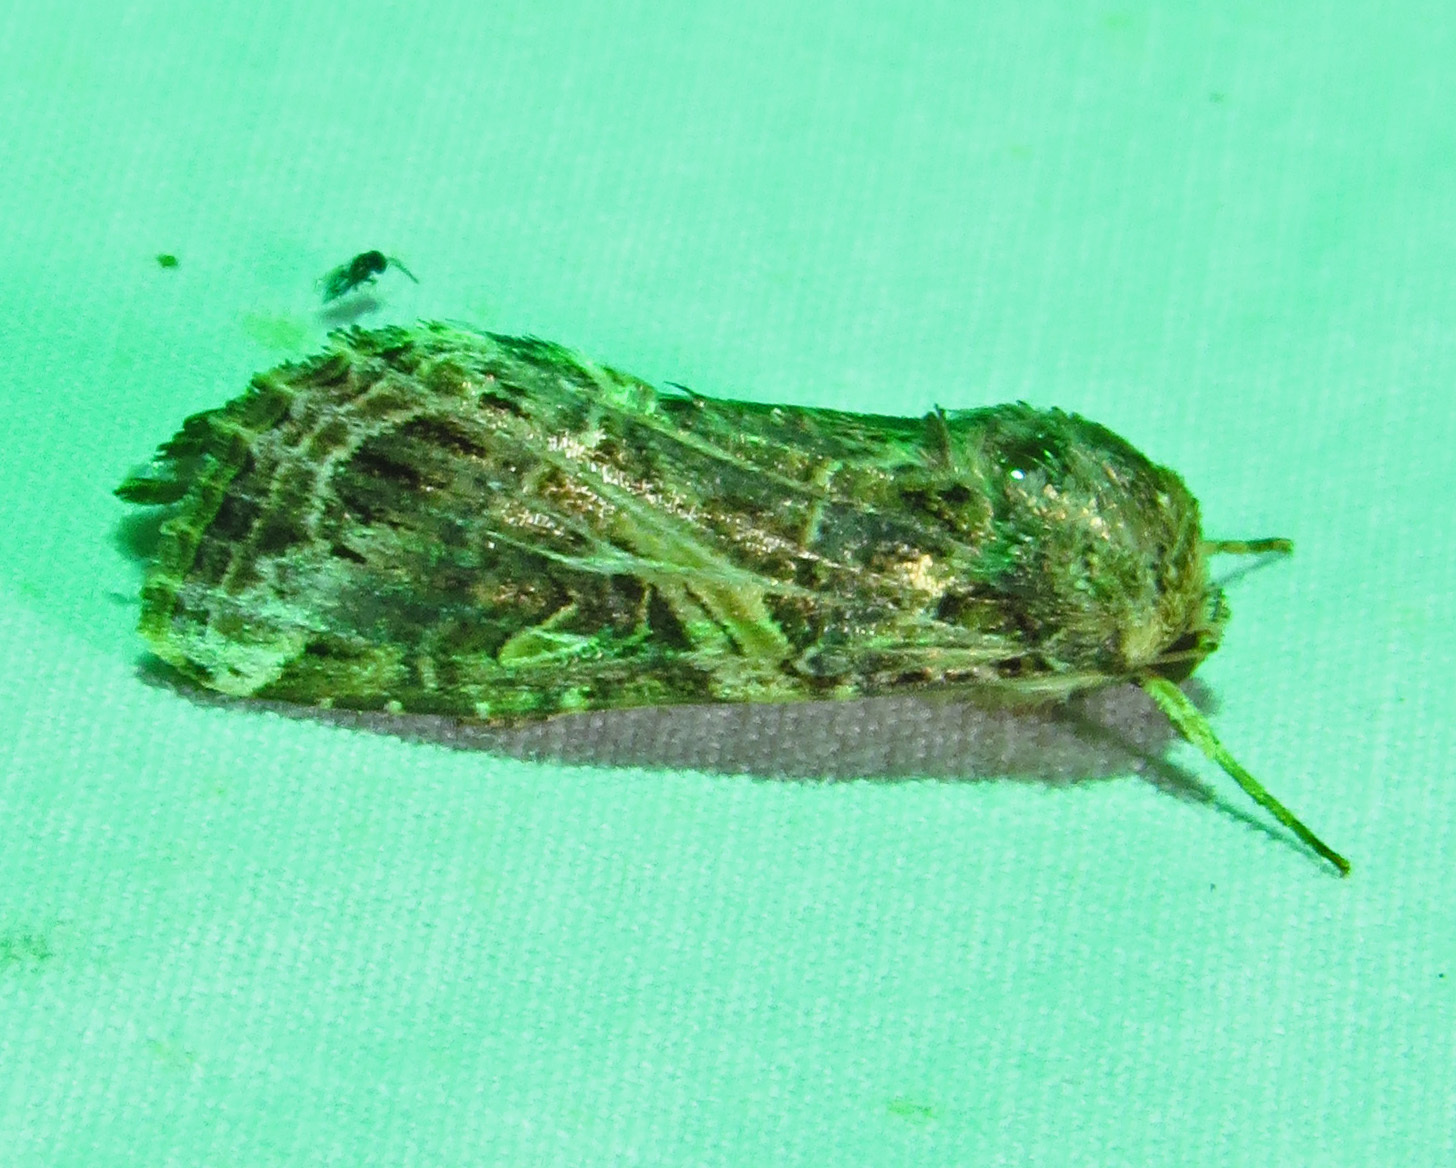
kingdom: Animalia
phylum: Arthropoda
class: Insecta
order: Lepidoptera
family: Noctuidae
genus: Spodoptera
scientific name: Spodoptera ornithogalli
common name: Yellow-striped armyworm
